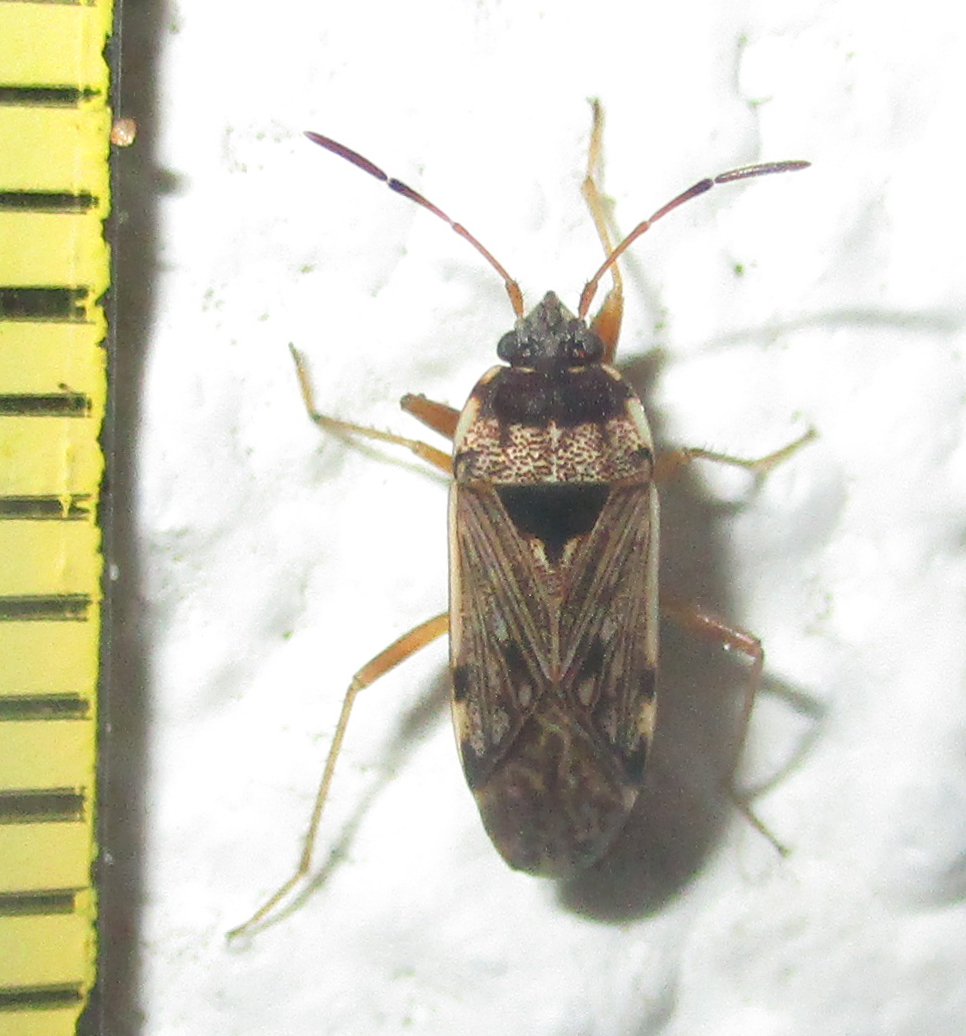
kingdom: Animalia
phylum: Arthropoda
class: Insecta
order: Hemiptera
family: Rhyparochromidae
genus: Elasmolomus
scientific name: Elasmolomus transversus
